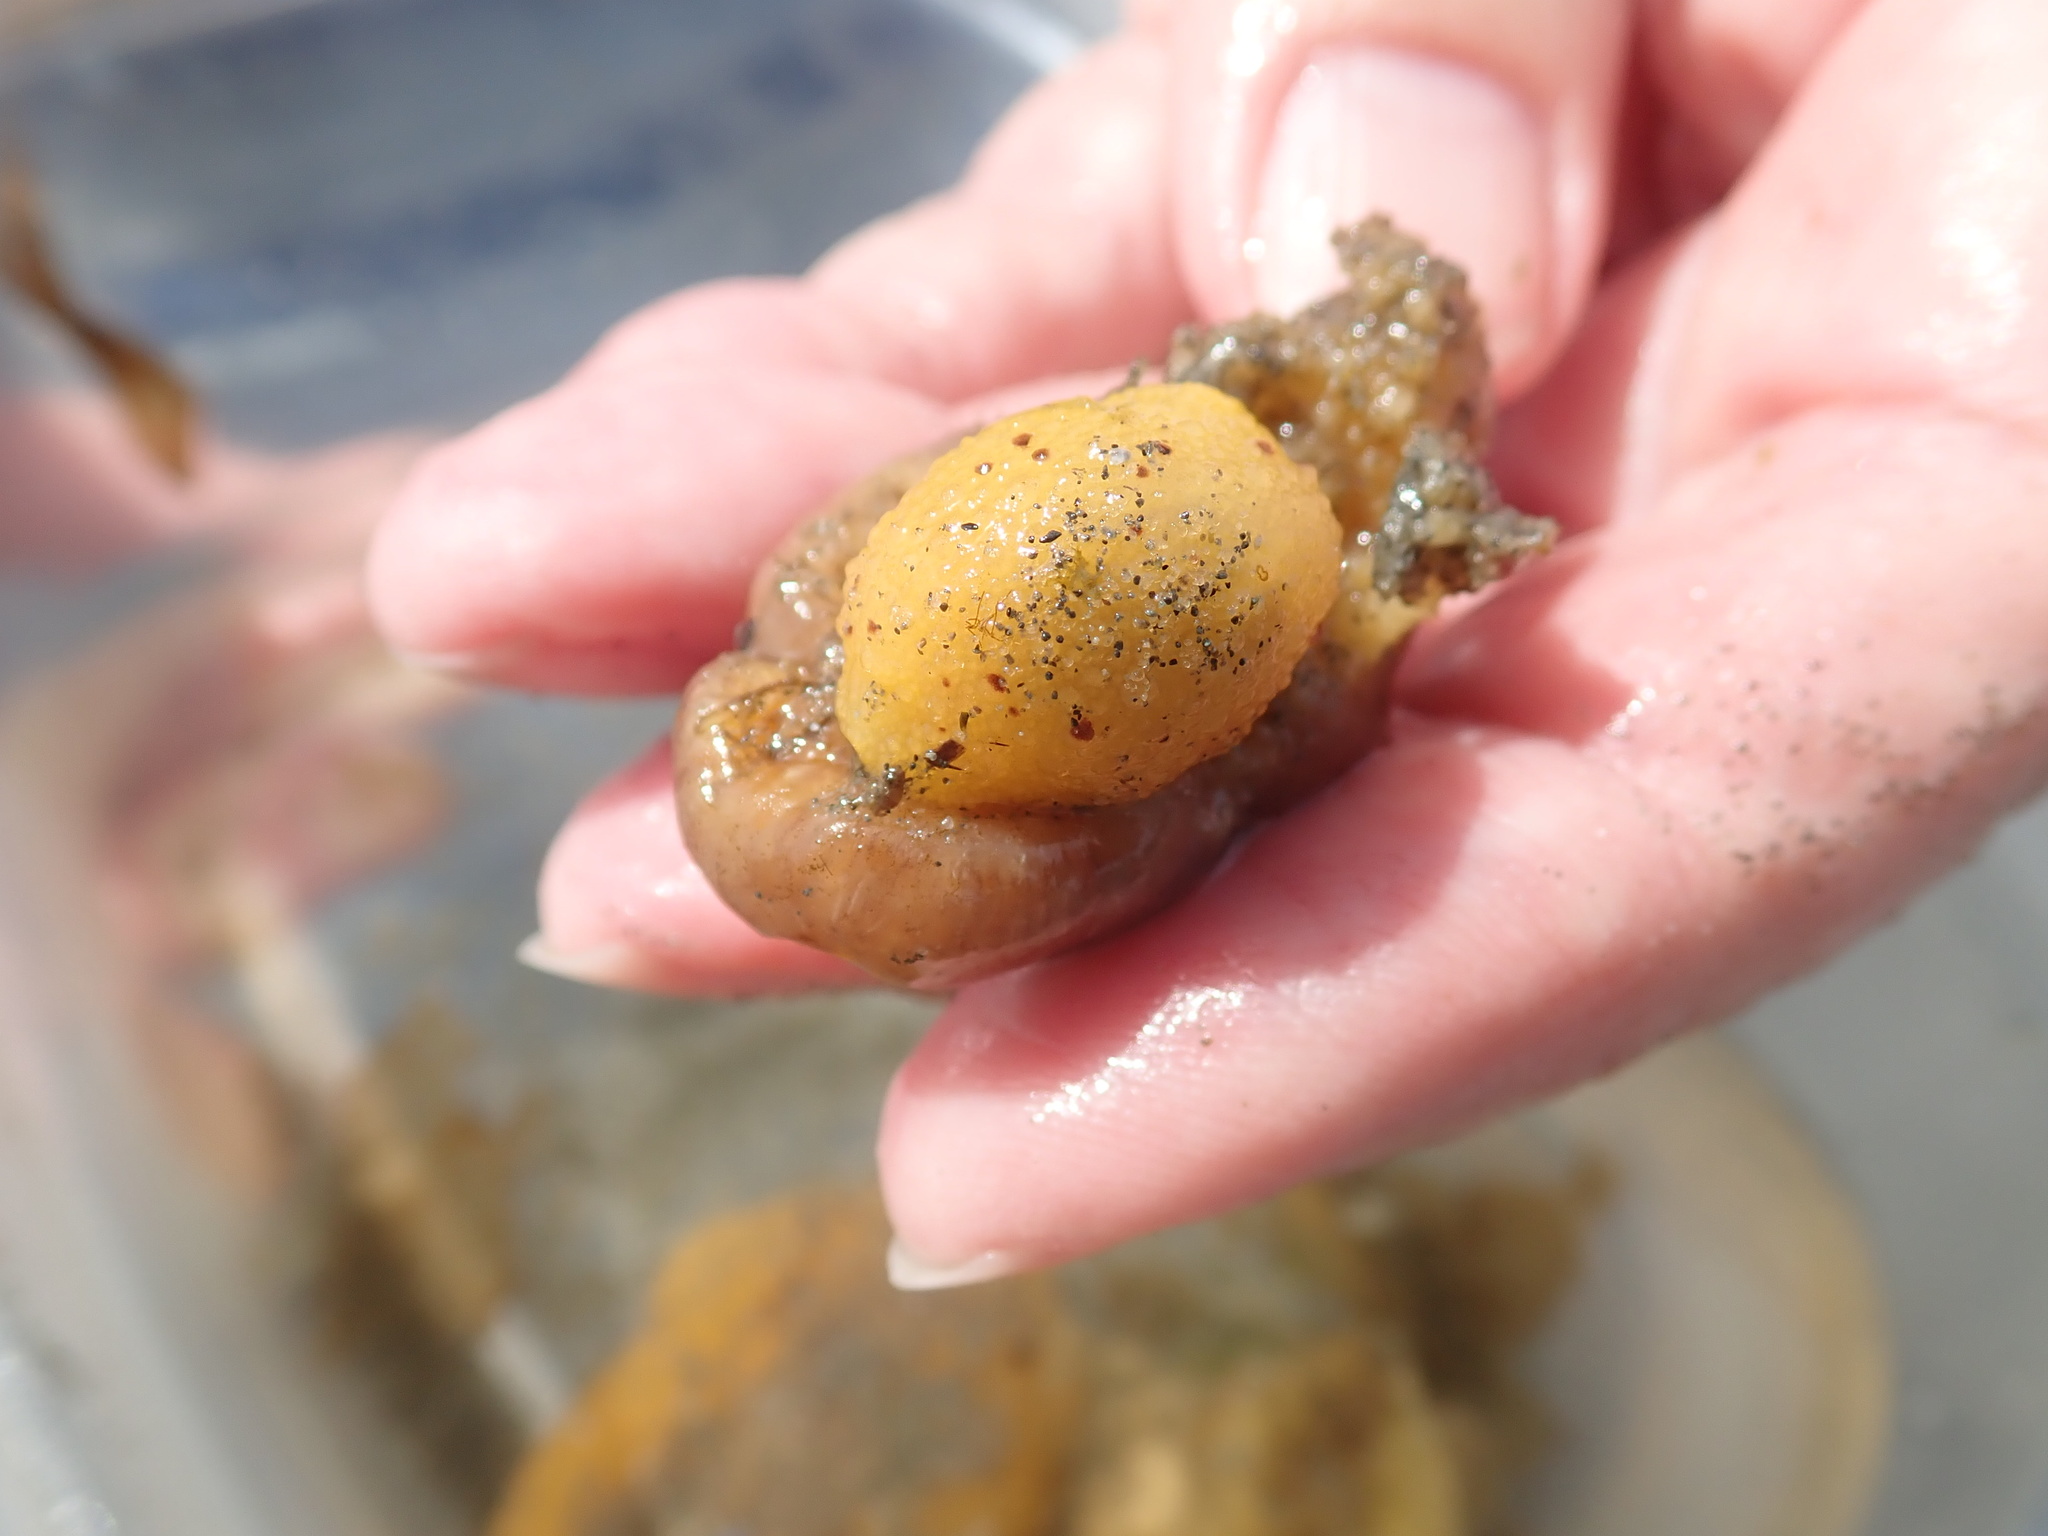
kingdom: Animalia
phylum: Mollusca
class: Gastropoda
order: Nudibranchia
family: Dorididae
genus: Doris
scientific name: Doris montereyensis
